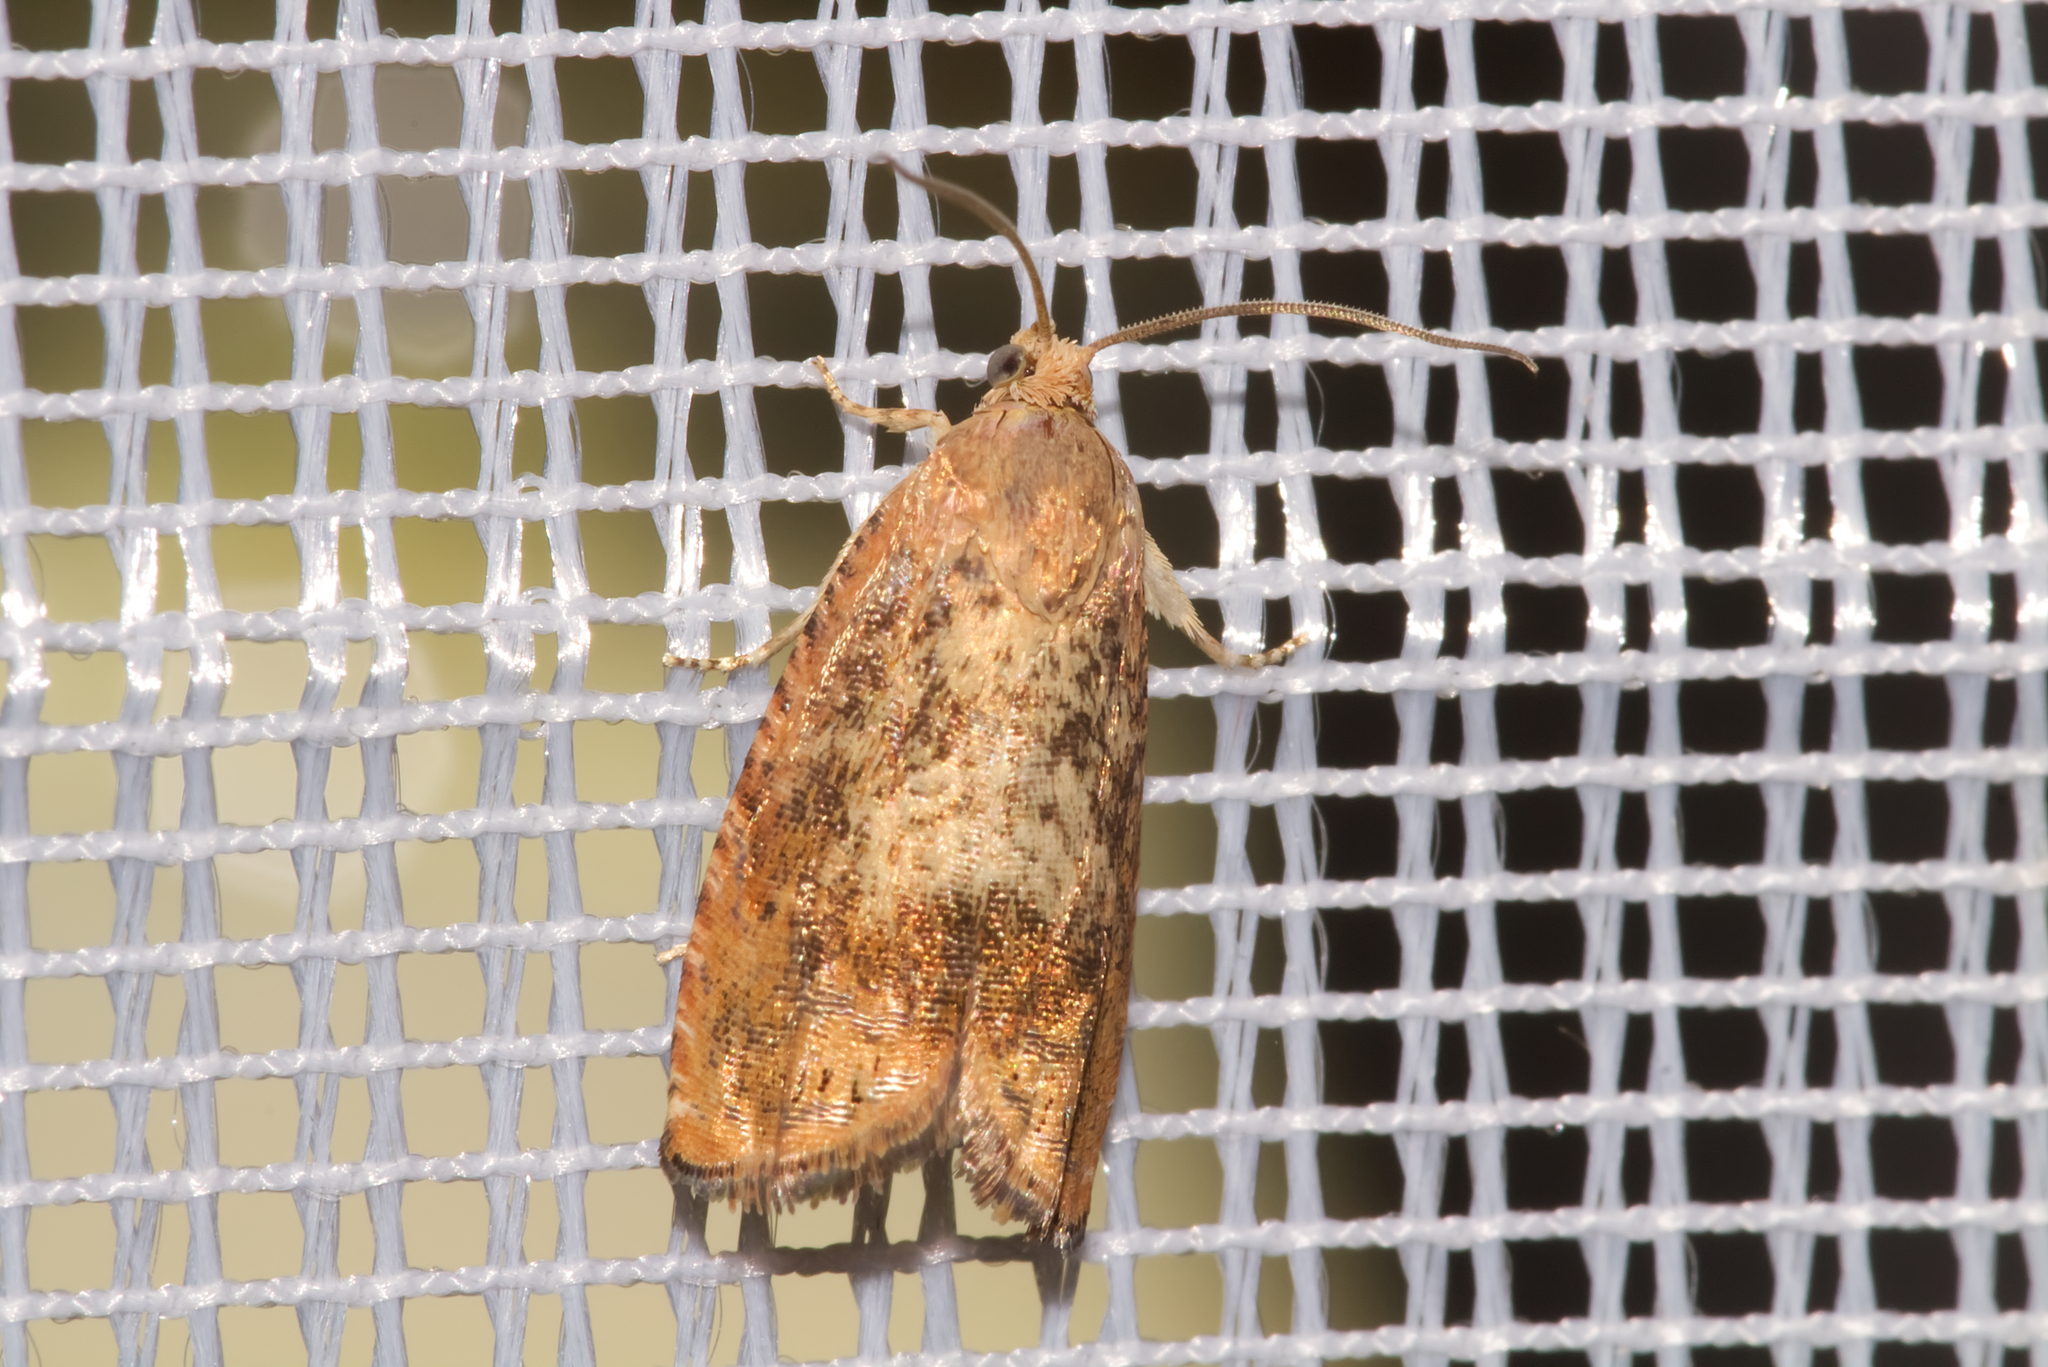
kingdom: Animalia
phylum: Arthropoda
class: Insecta
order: Lepidoptera
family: Tortricidae
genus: Cydia
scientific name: Cydia amplana
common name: Vagrant piercer
